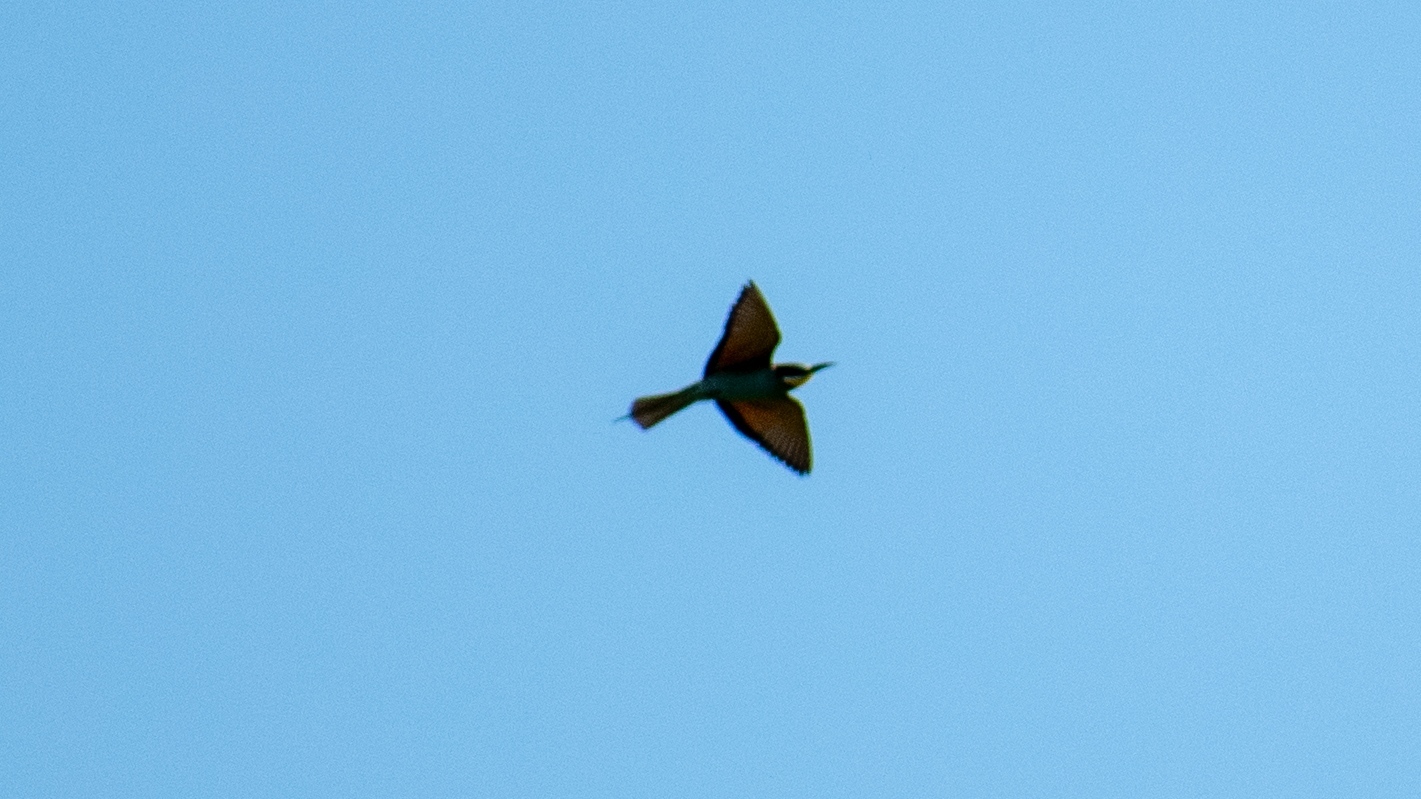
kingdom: Animalia
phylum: Chordata
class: Aves
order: Coraciiformes
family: Meropidae
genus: Merops
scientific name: Merops apiaster
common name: European bee-eater
